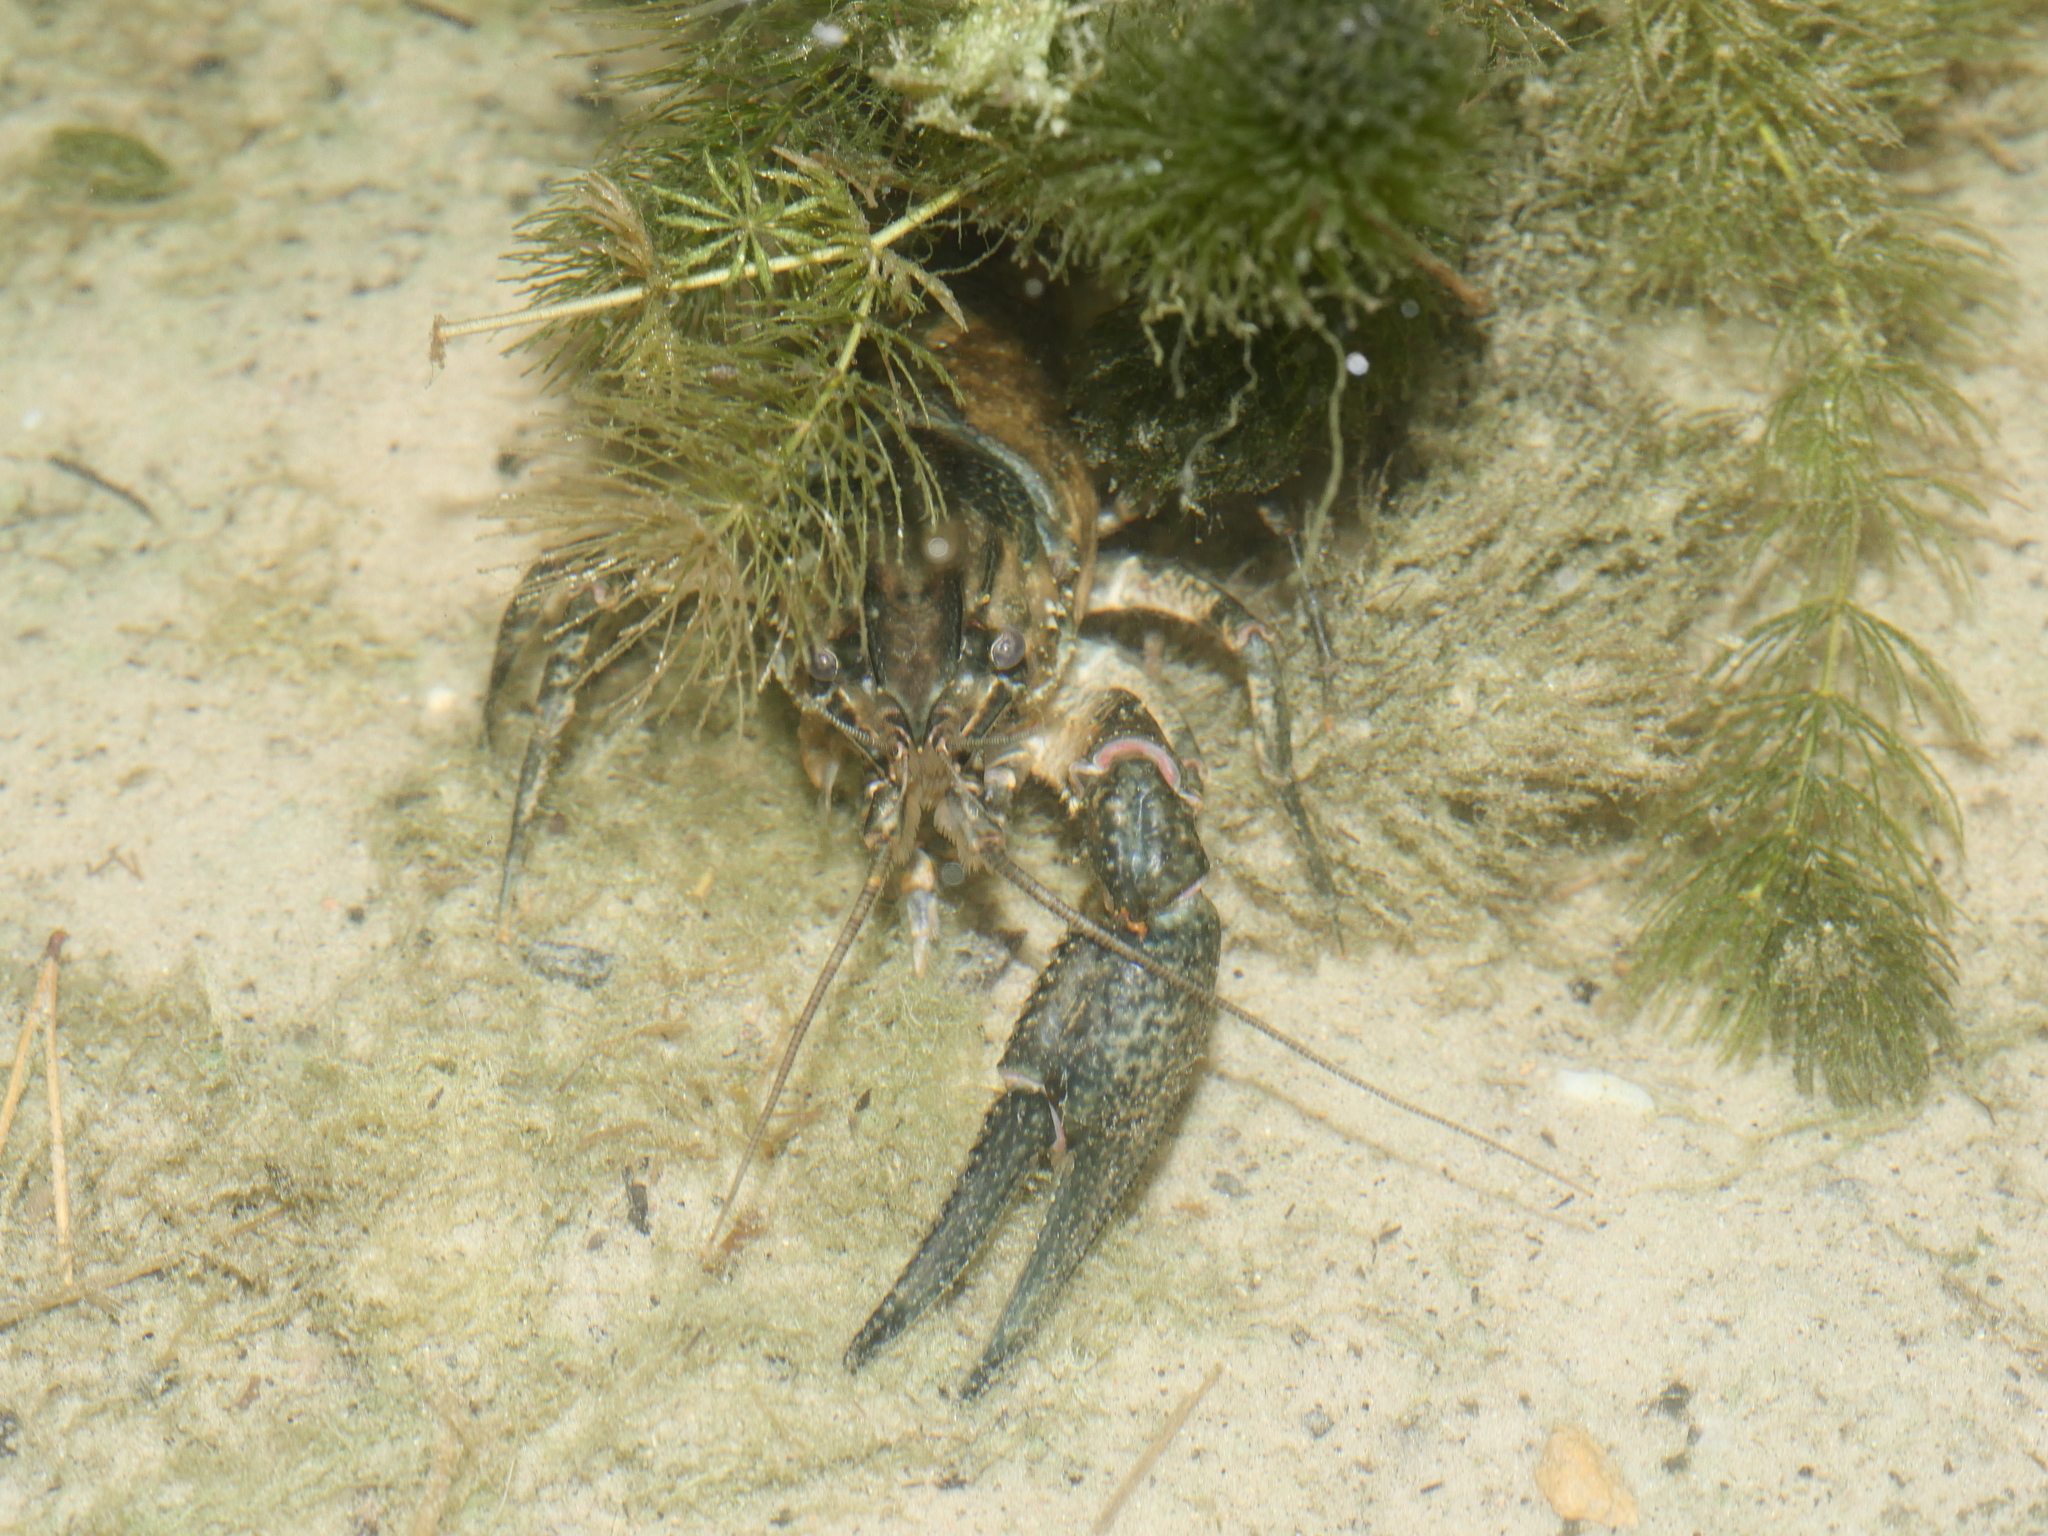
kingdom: Animalia
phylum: Arthropoda
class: Malacostraca
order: Decapoda
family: Cambaridae
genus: Faxonius
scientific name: Faxonius limosus
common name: American crayfish
